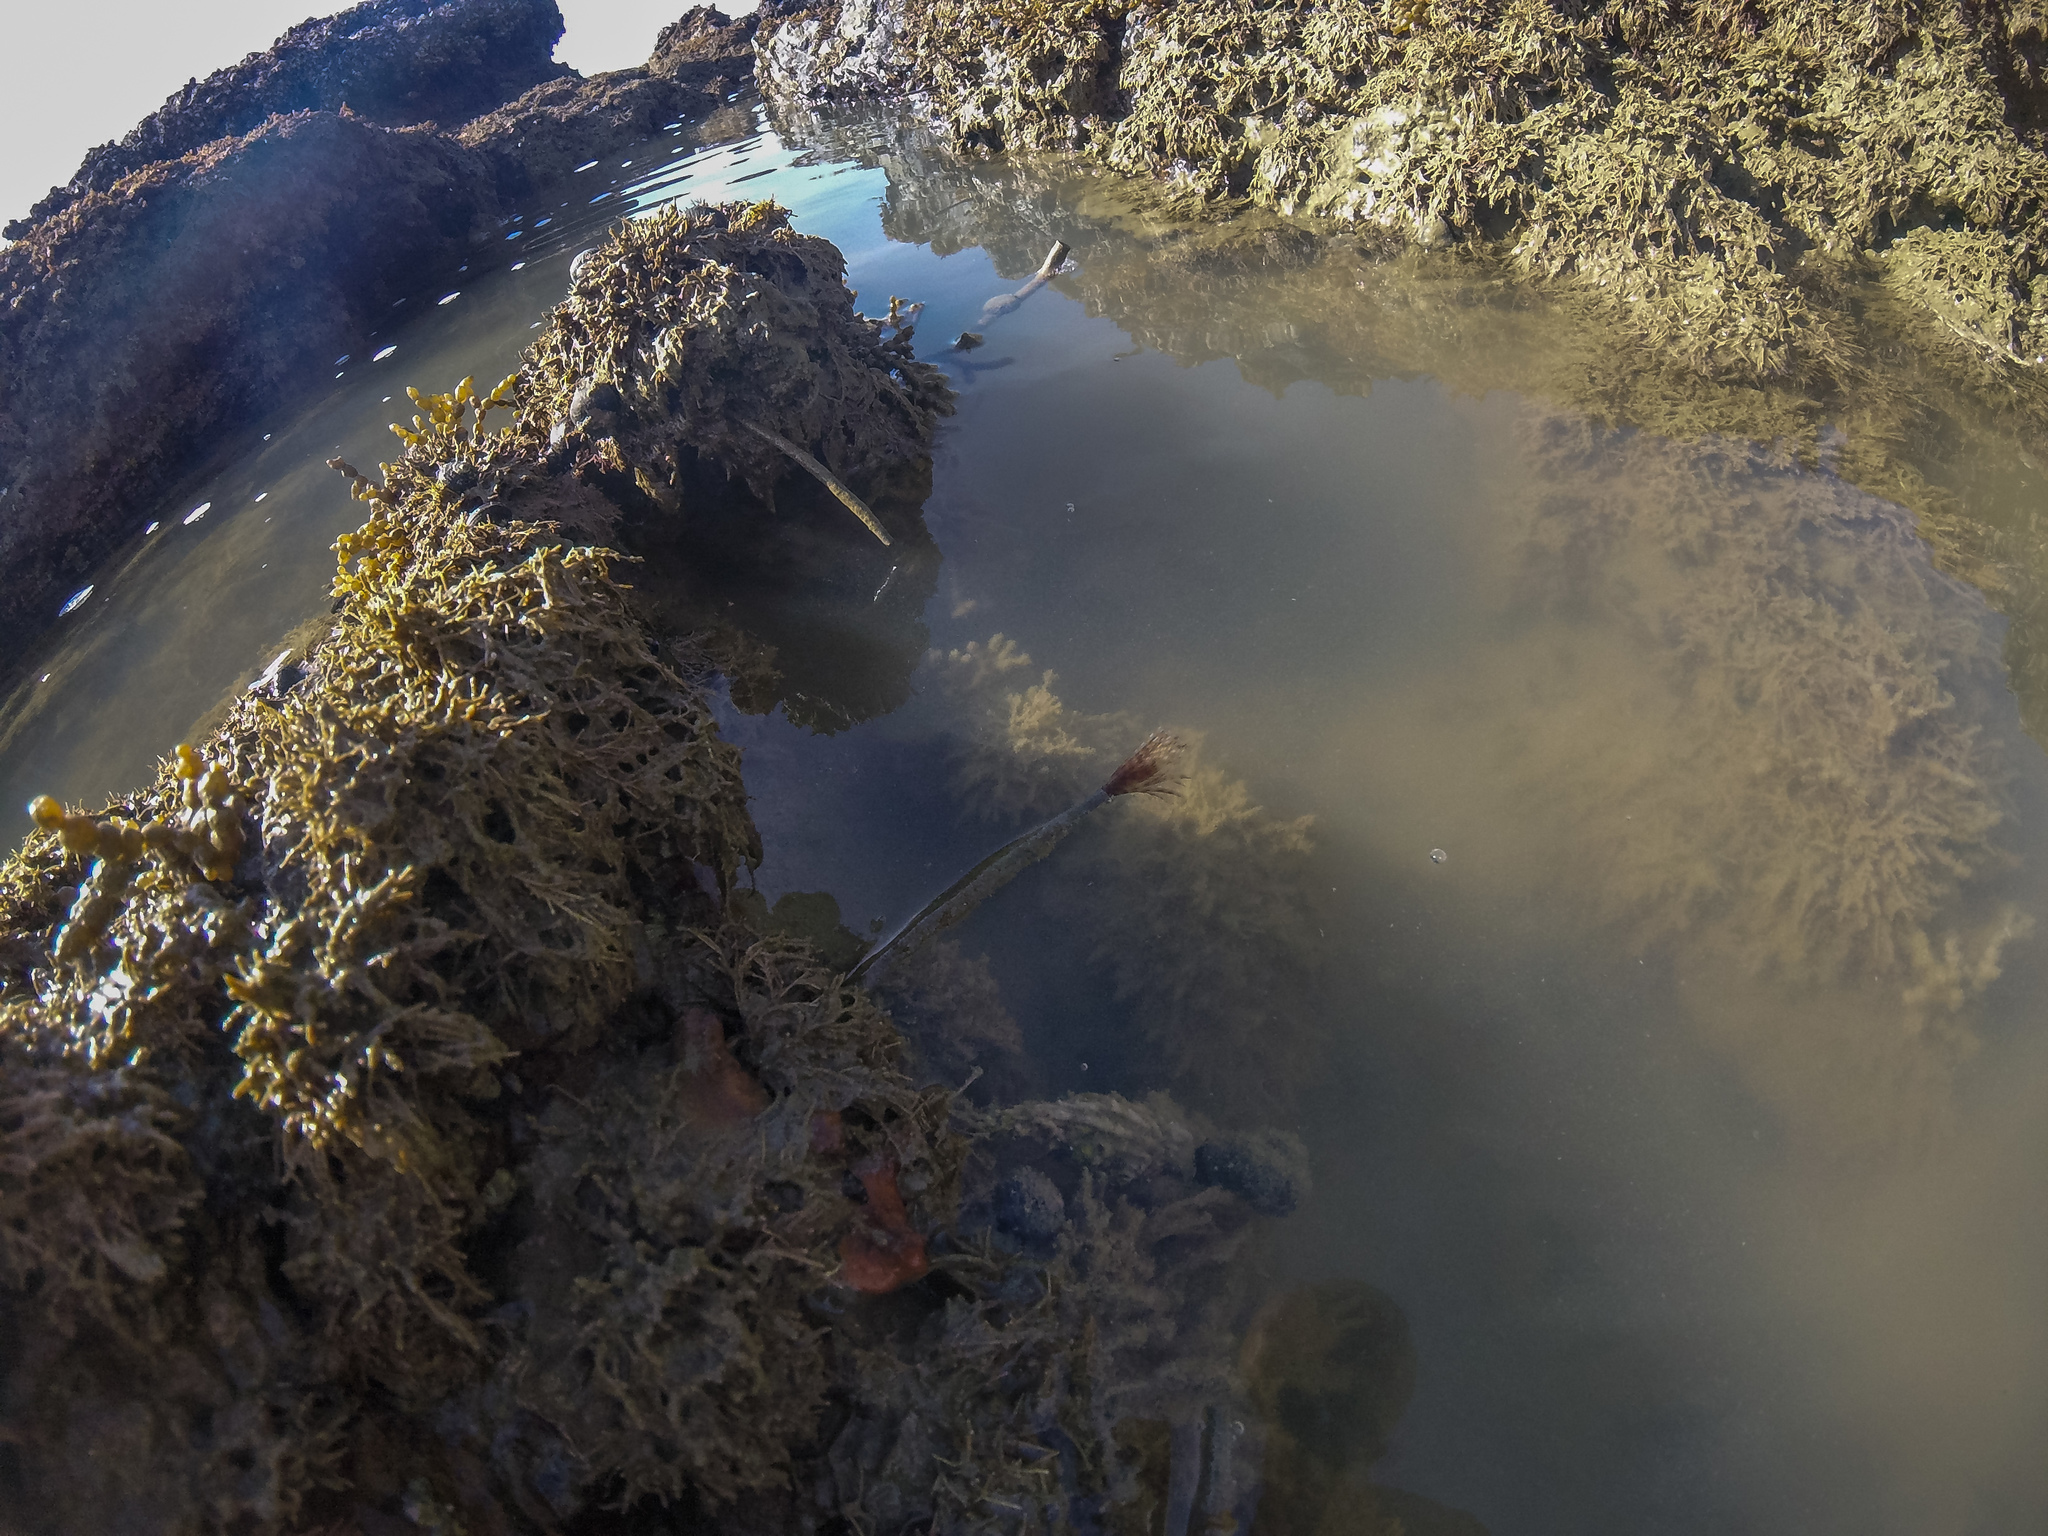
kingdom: Animalia
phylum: Annelida
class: Polychaeta
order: Sabellida
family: Sabellidae
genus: Sabella
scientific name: Sabella spallanzanii
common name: Feather duster worm
